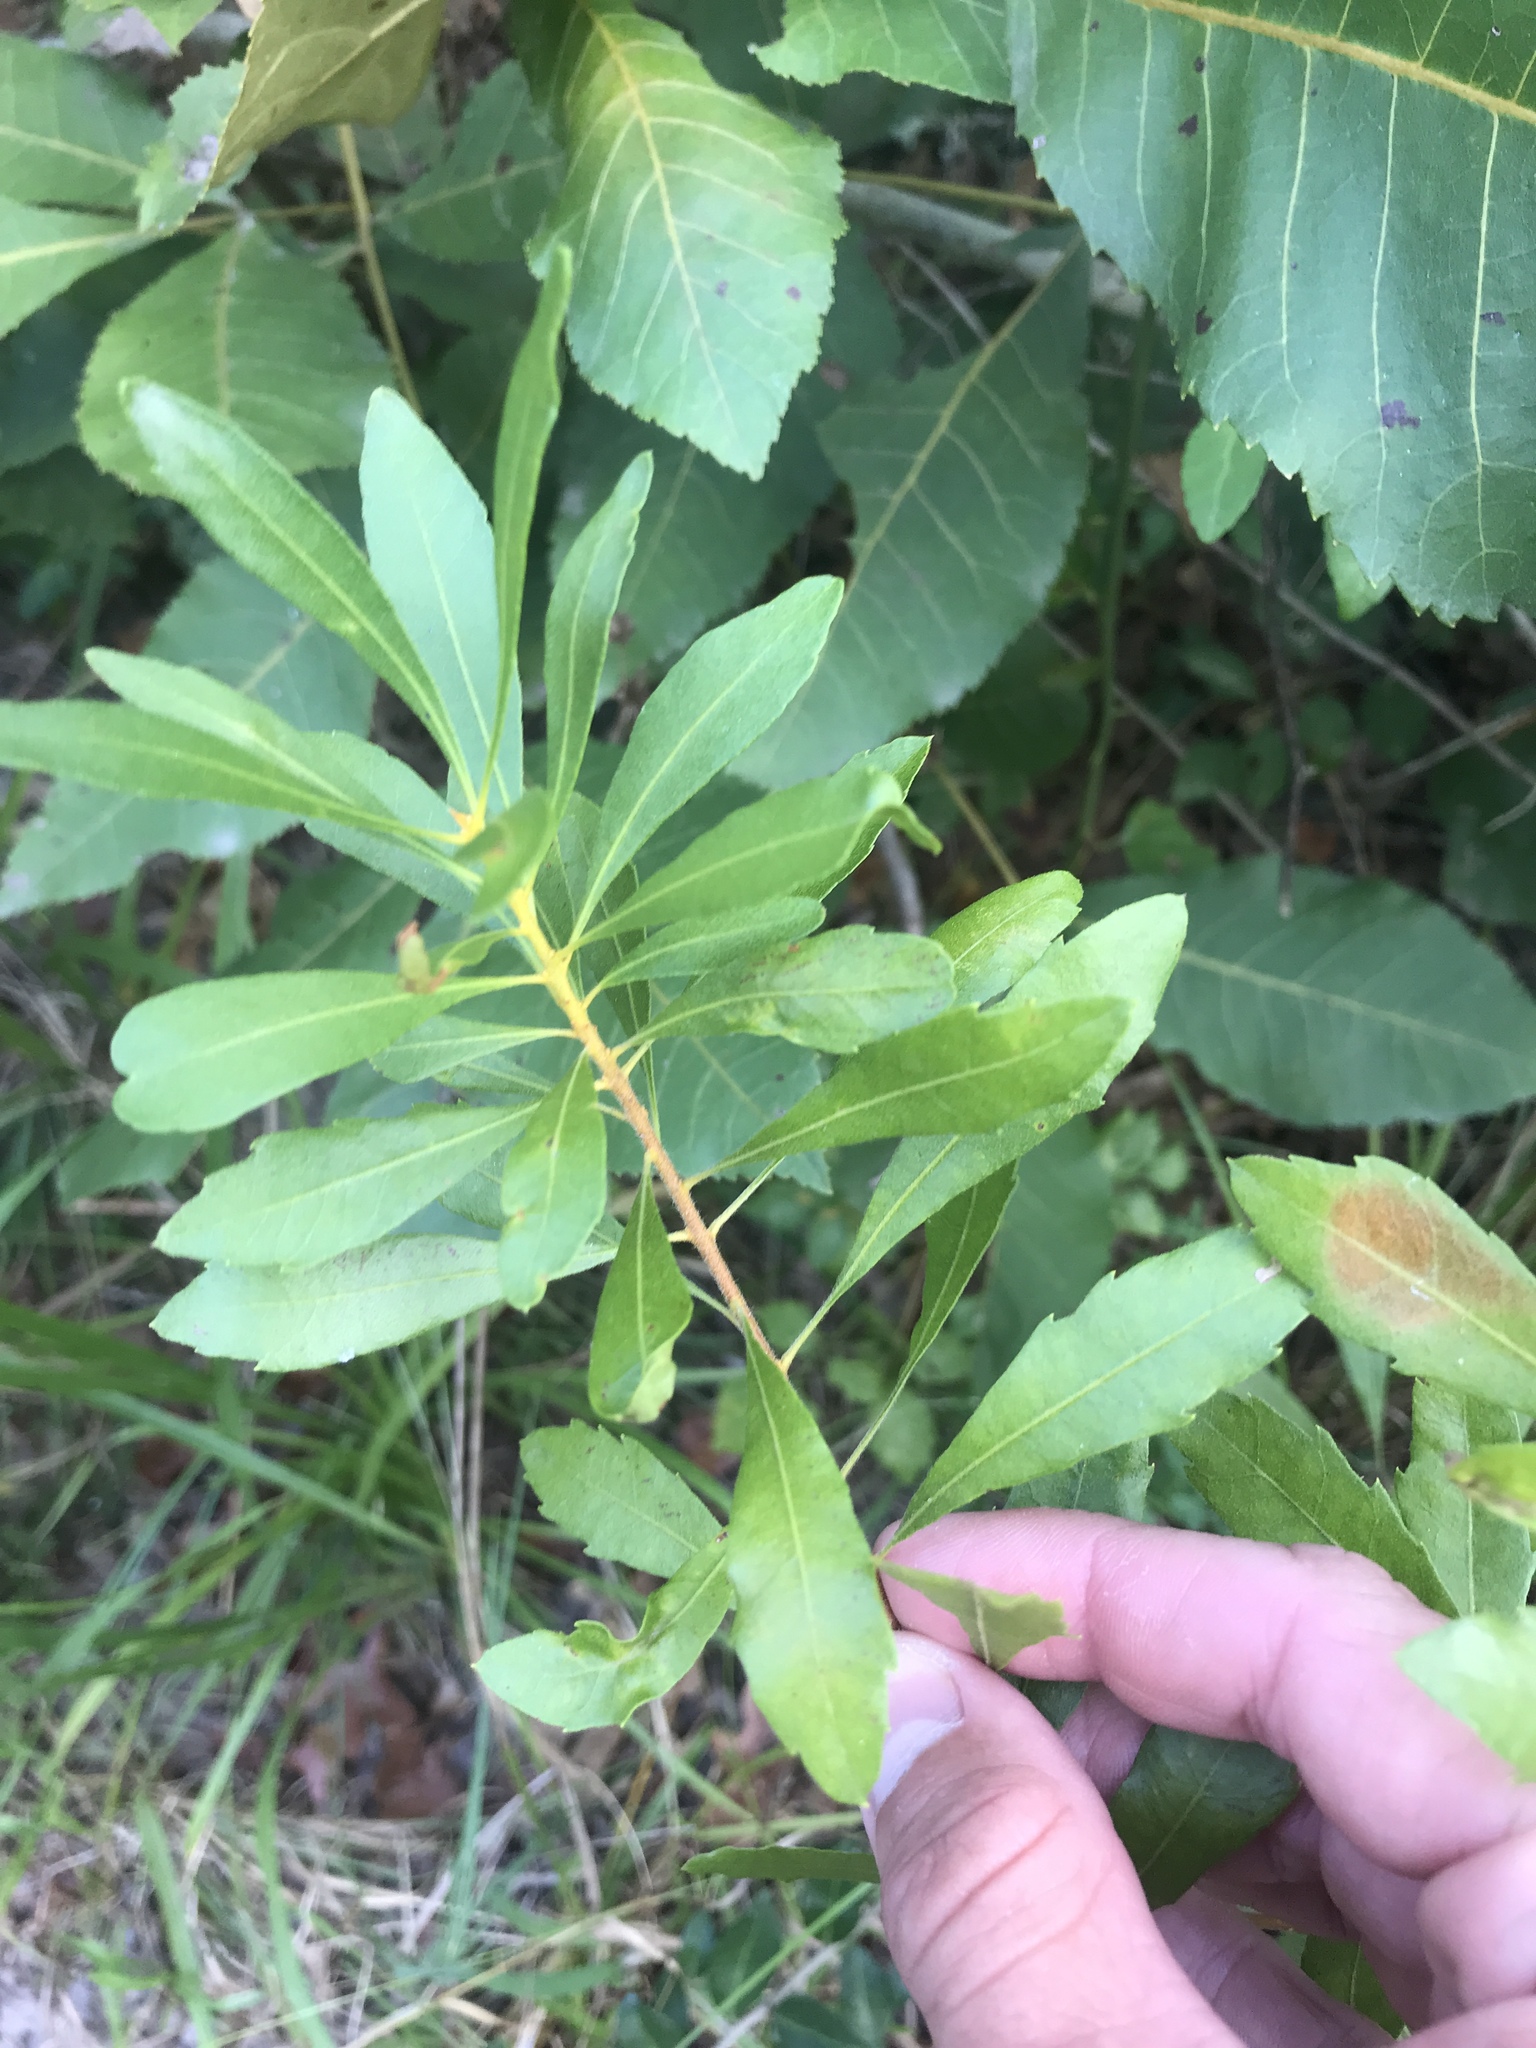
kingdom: Plantae
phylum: Tracheophyta
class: Magnoliopsida
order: Fagales
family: Myricaceae
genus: Morella
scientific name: Morella cerifera
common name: Wax myrtle
